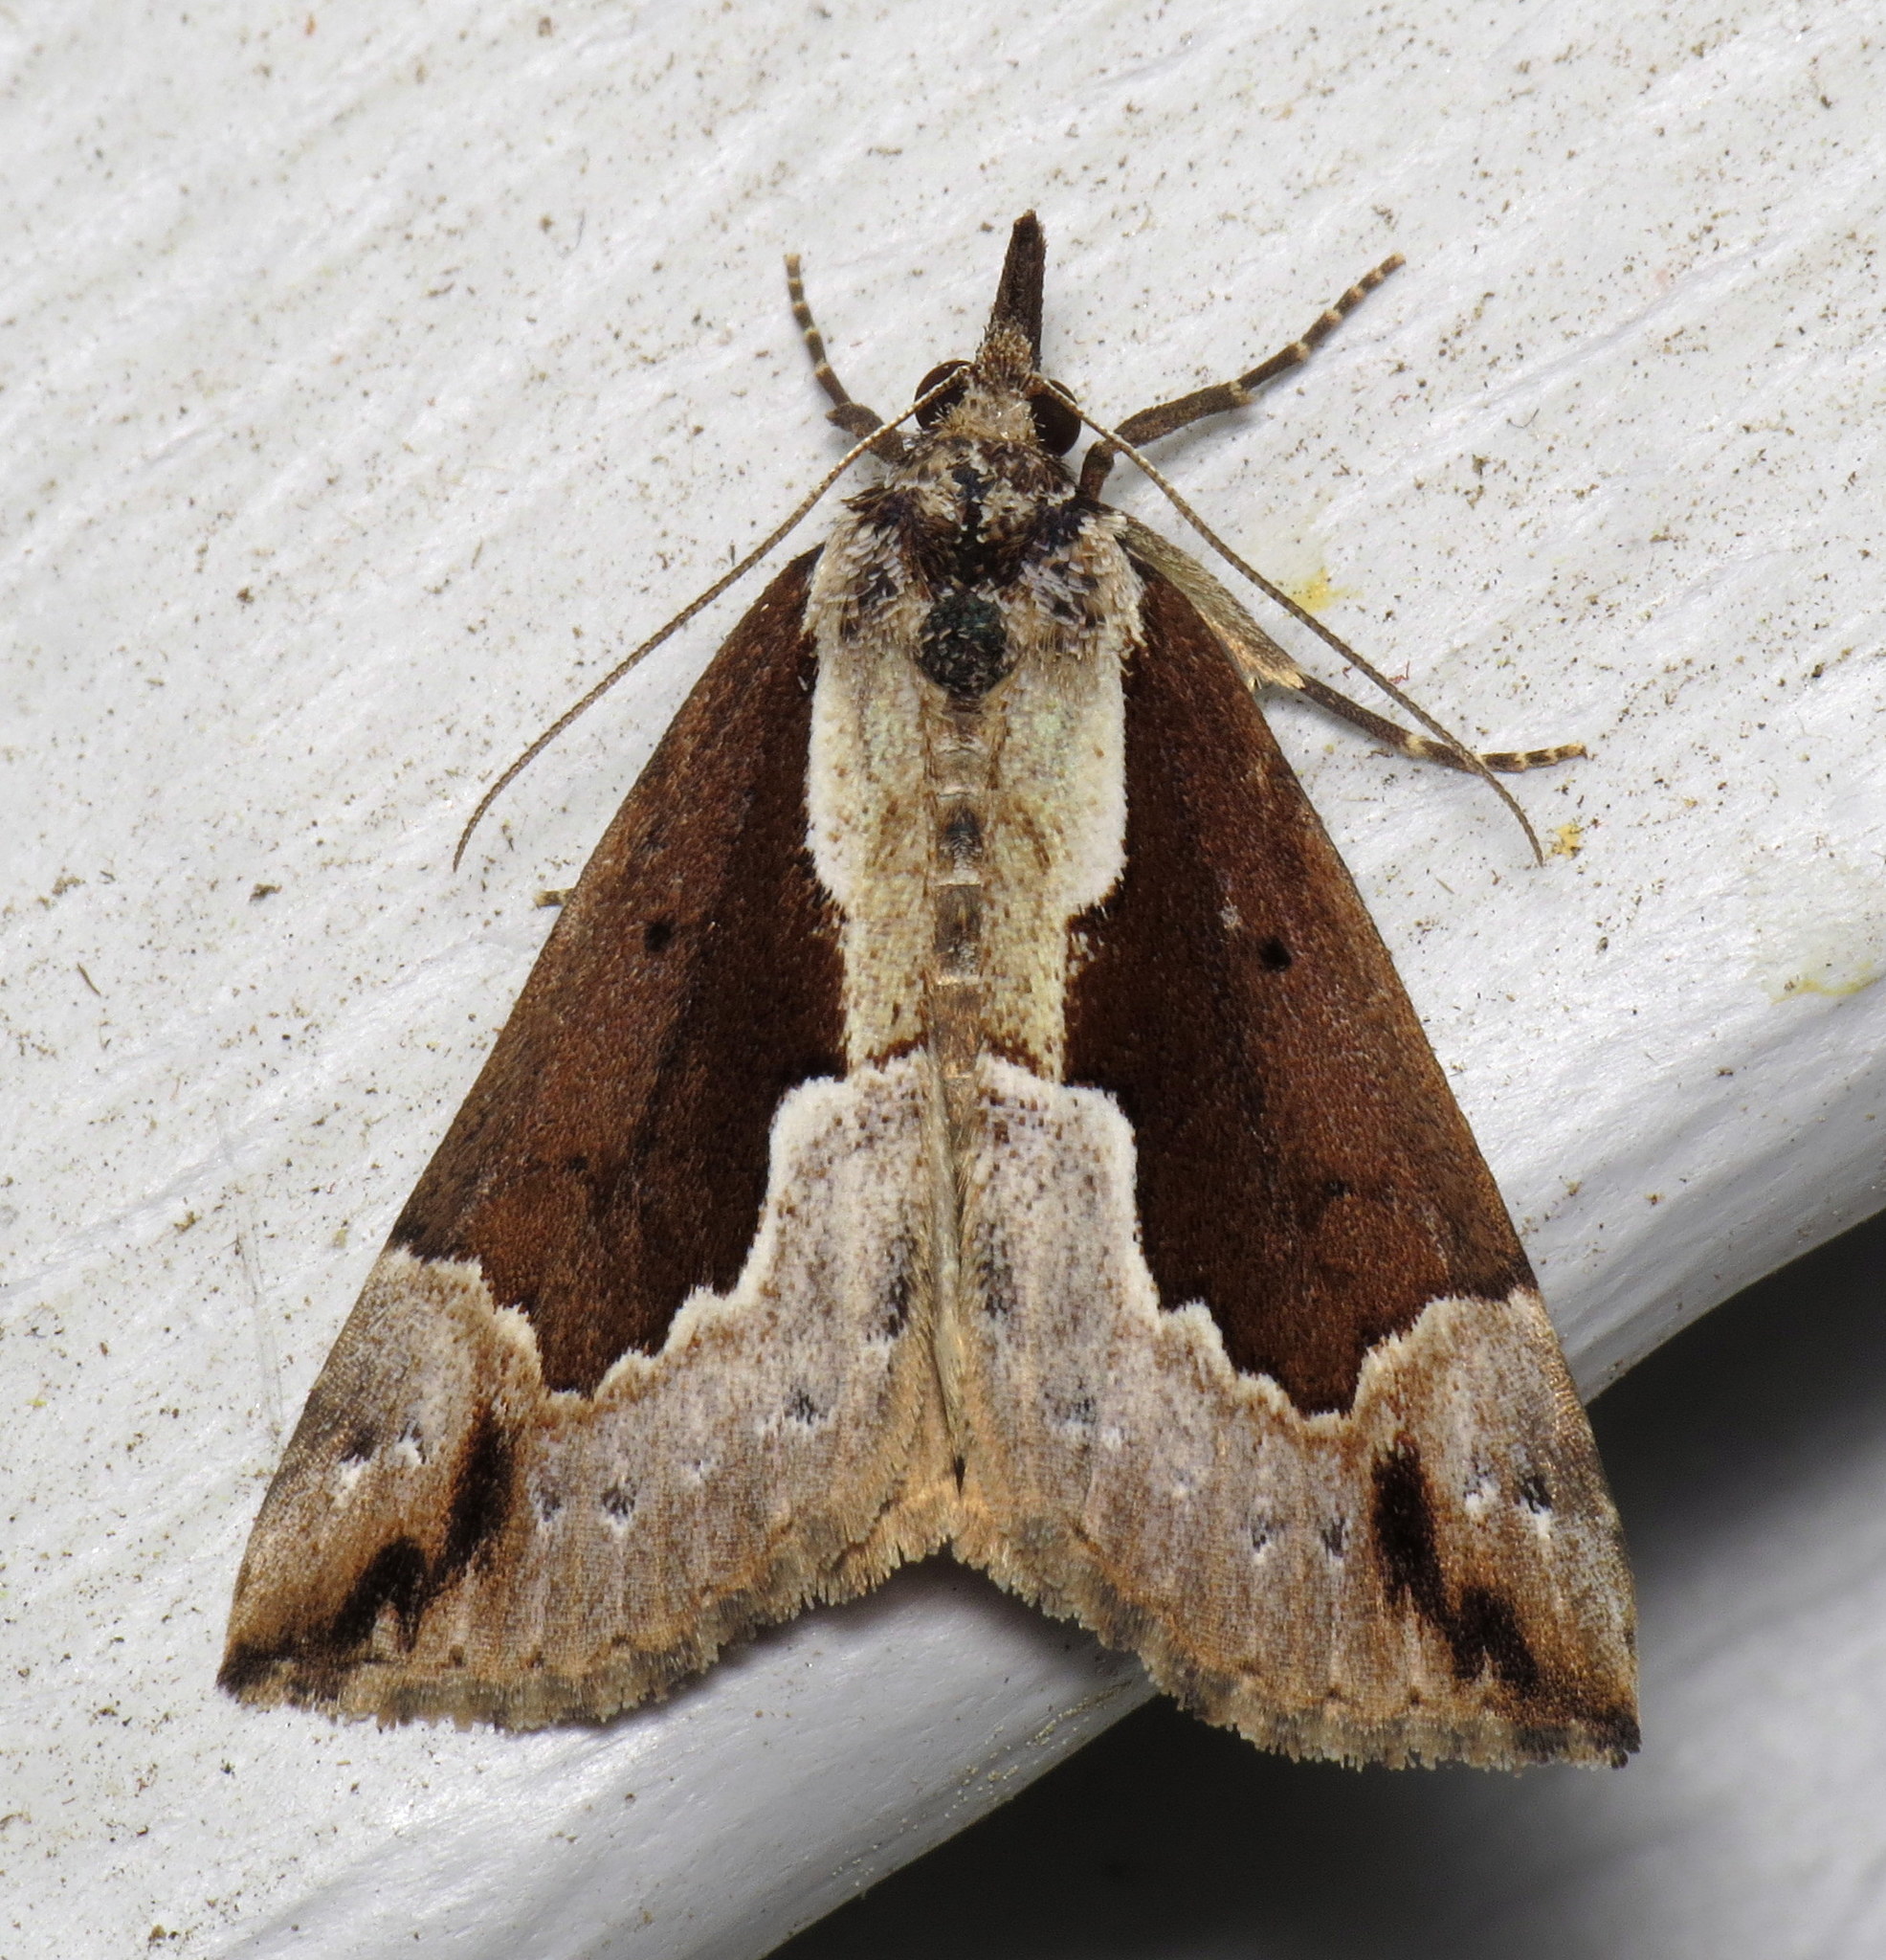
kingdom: Animalia
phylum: Arthropoda
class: Insecta
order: Lepidoptera
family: Erebidae
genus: Hypena
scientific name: Hypena baltimoralis
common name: Baltimore snout
